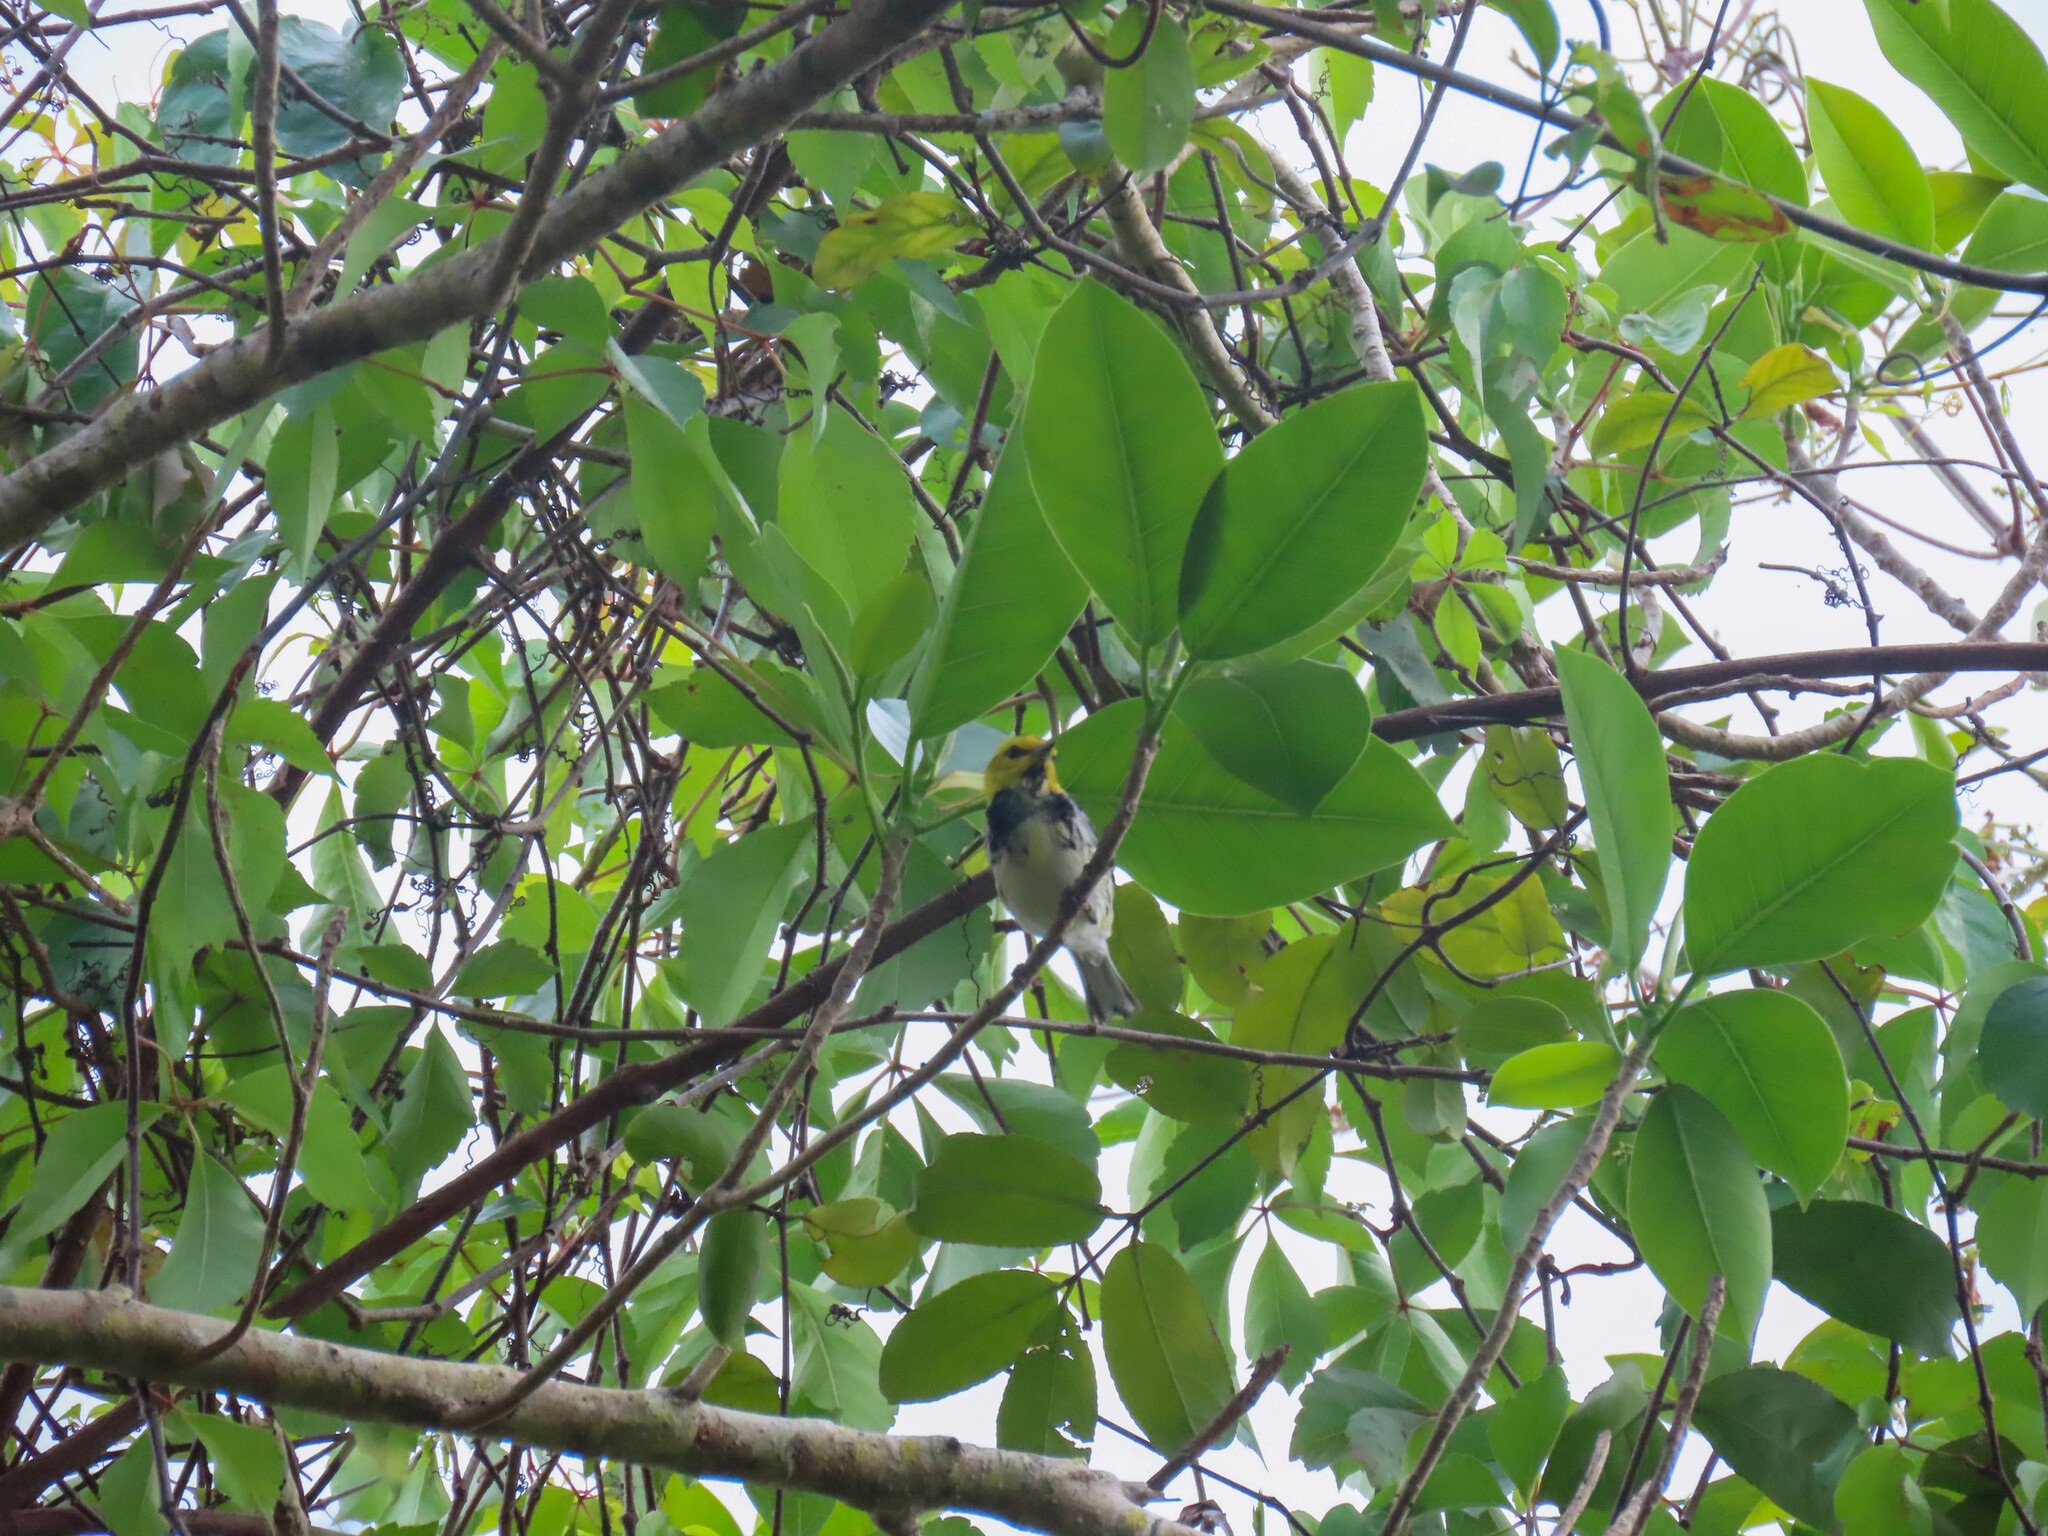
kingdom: Animalia
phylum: Chordata
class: Aves
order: Passeriformes
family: Parulidae
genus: Setophaga
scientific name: Setophaga virens
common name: Black-throated green warbler
